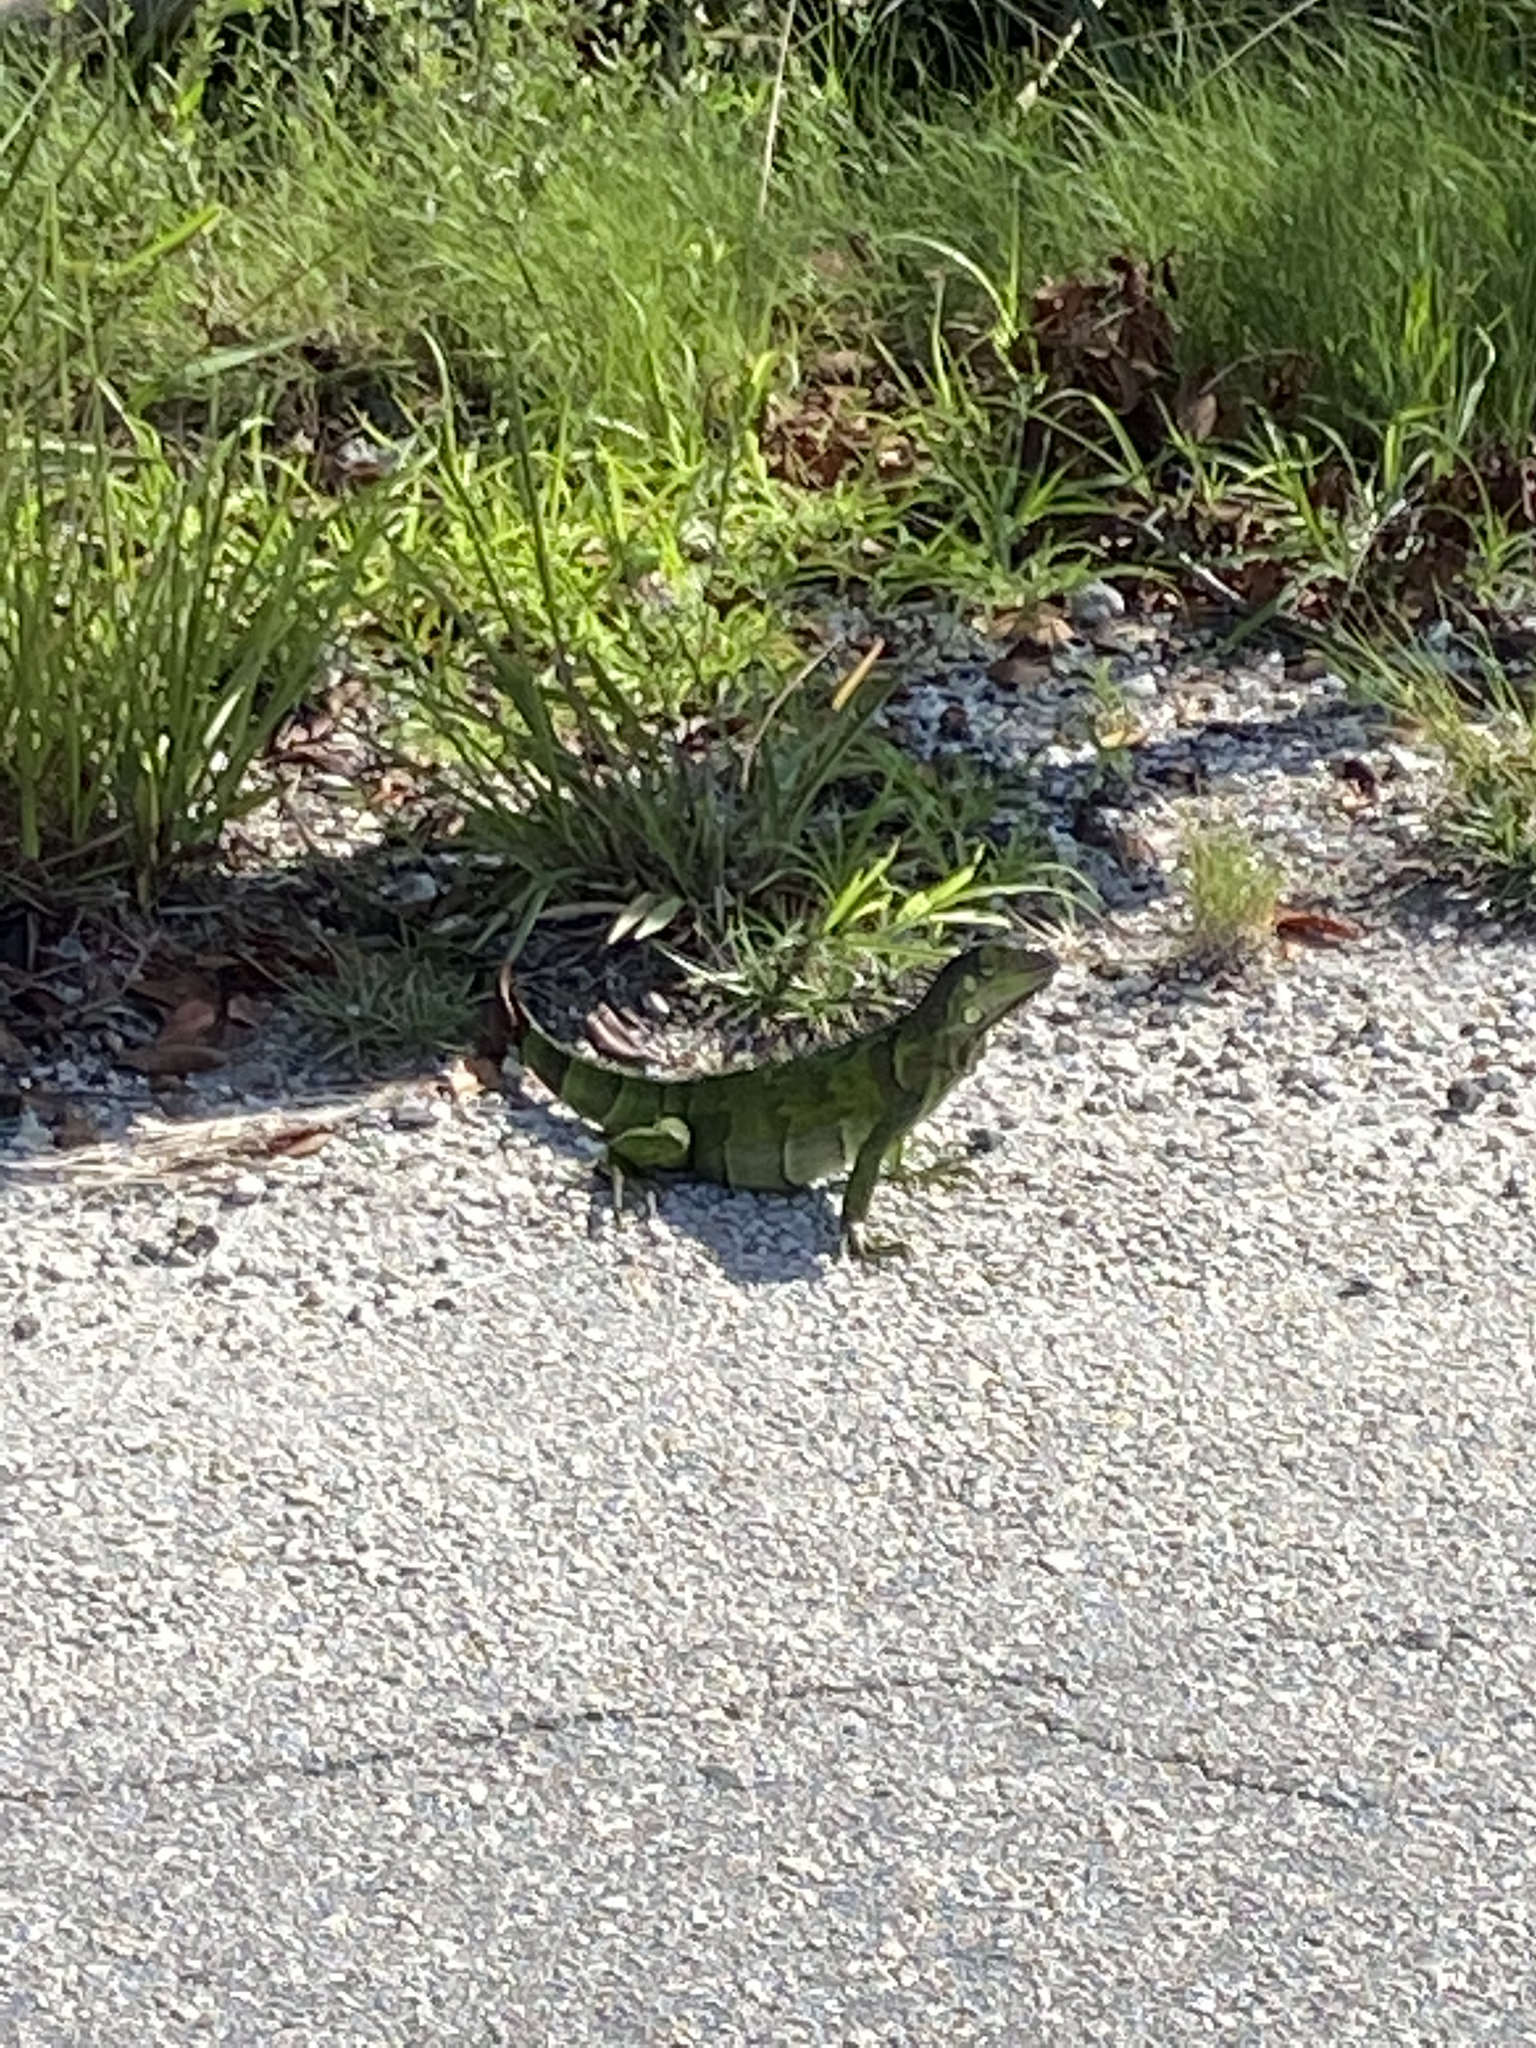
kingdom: Animalia
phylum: Chordata
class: Squamata
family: Iguanidae
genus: Iguana
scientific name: Iguana iguana
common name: Green iguana
